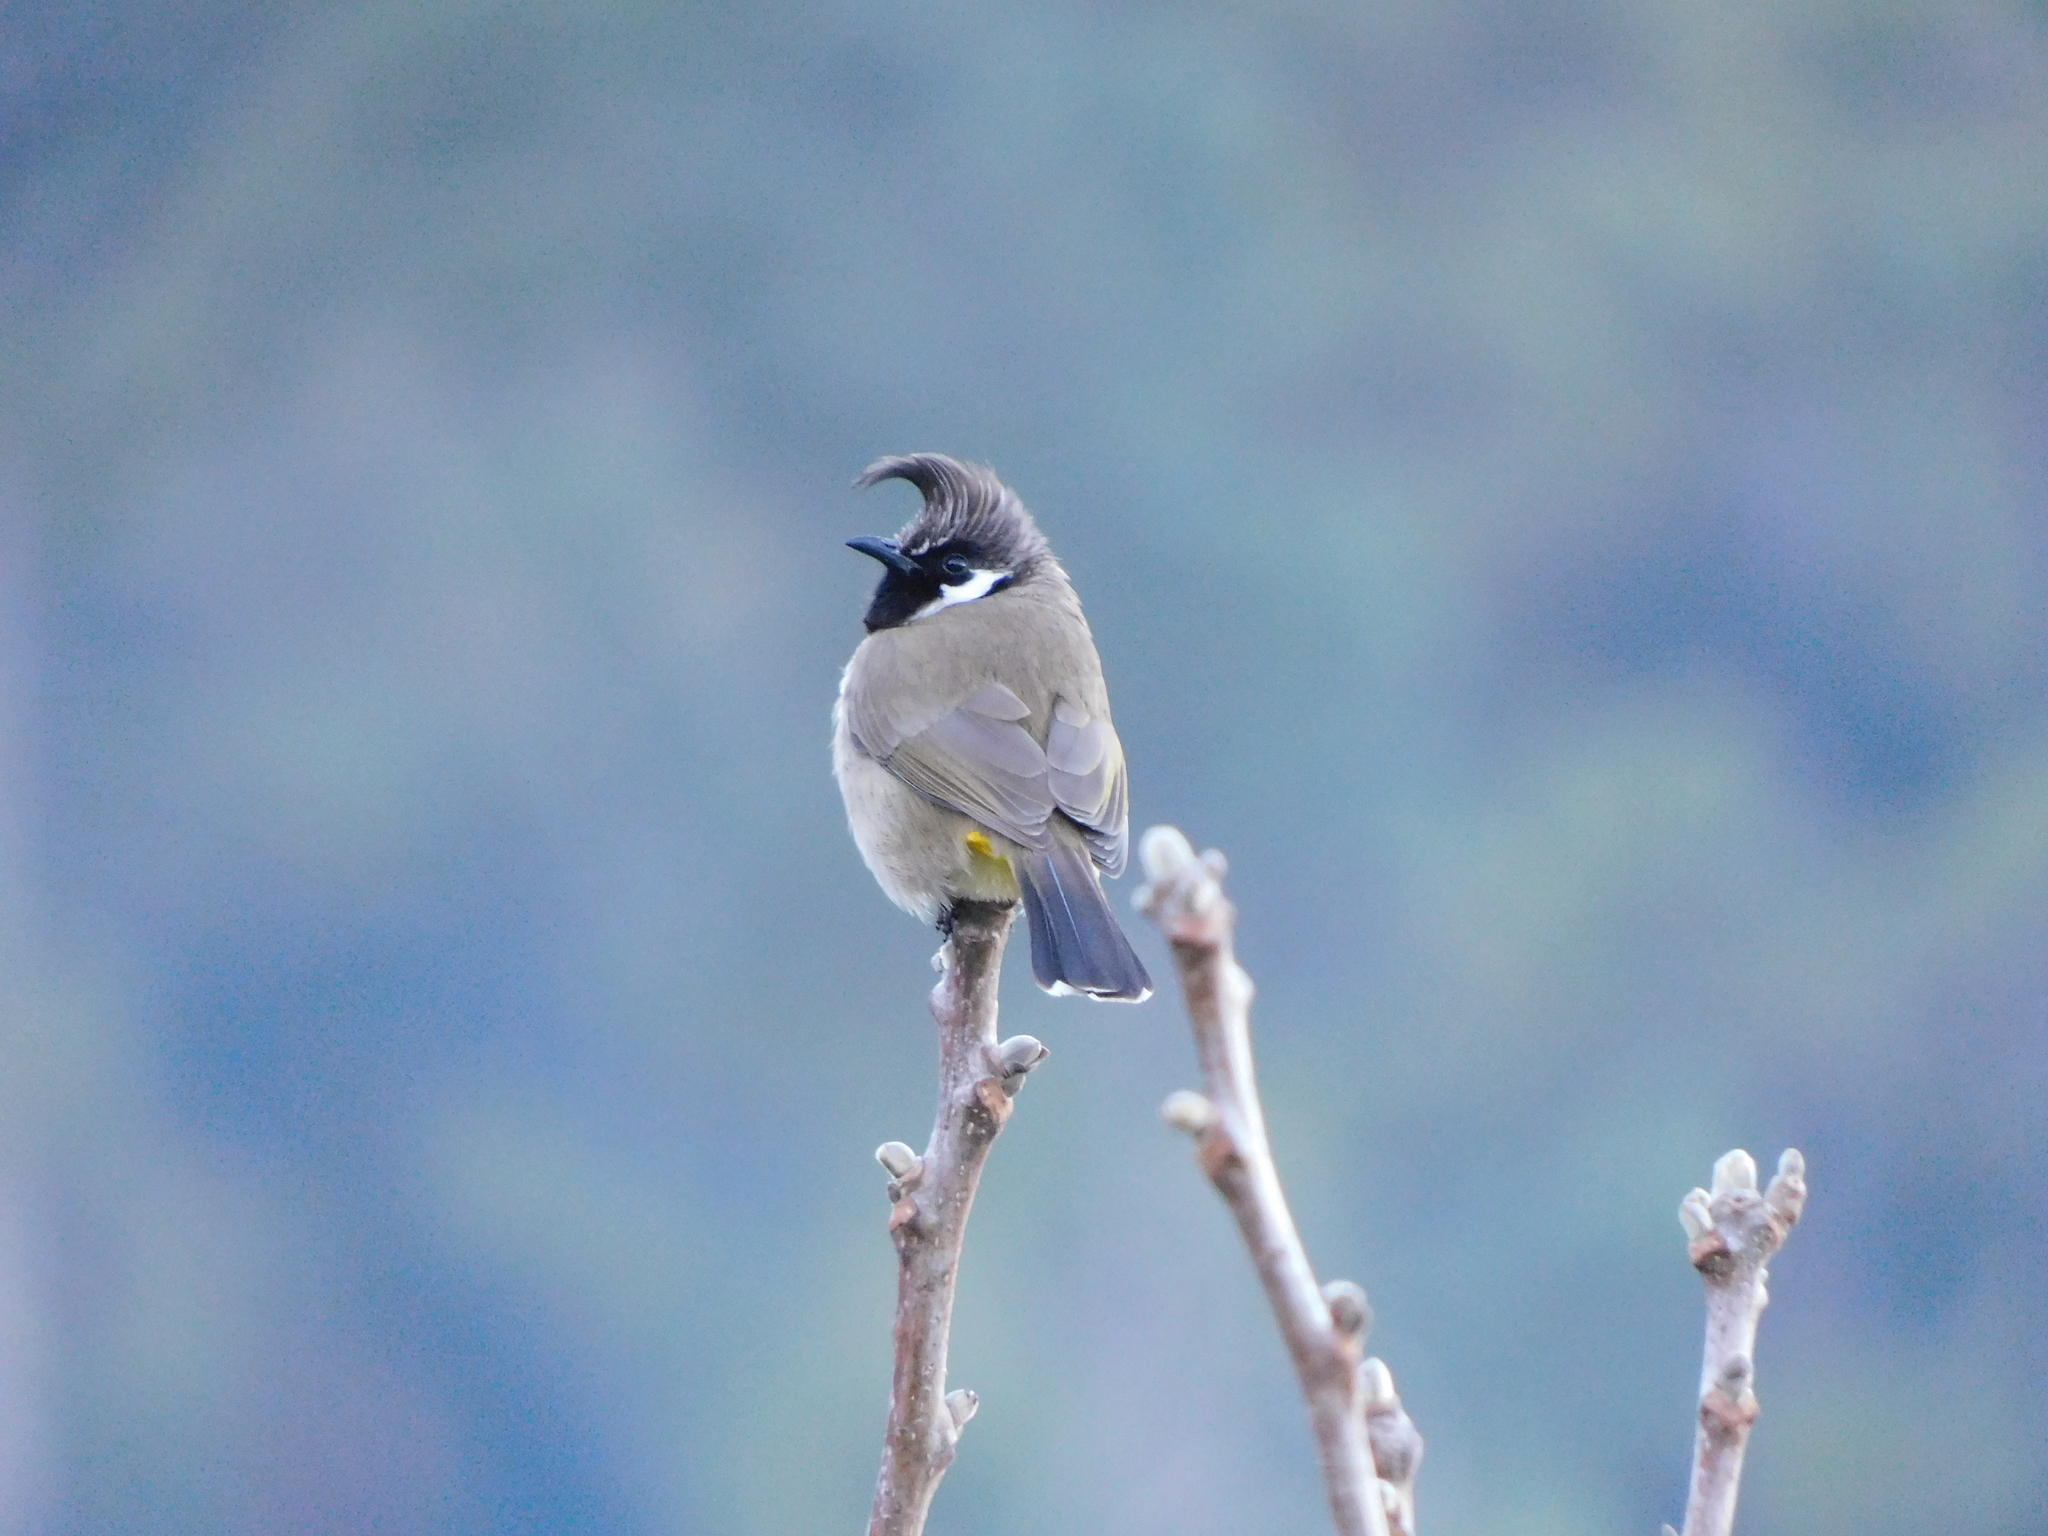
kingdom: Animalia
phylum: Chordata
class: Aves
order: Passeriformes
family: Pycnonotidae
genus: Pycnonotus
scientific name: Pycnonotus leucogenys
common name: Himalayan bulbul
